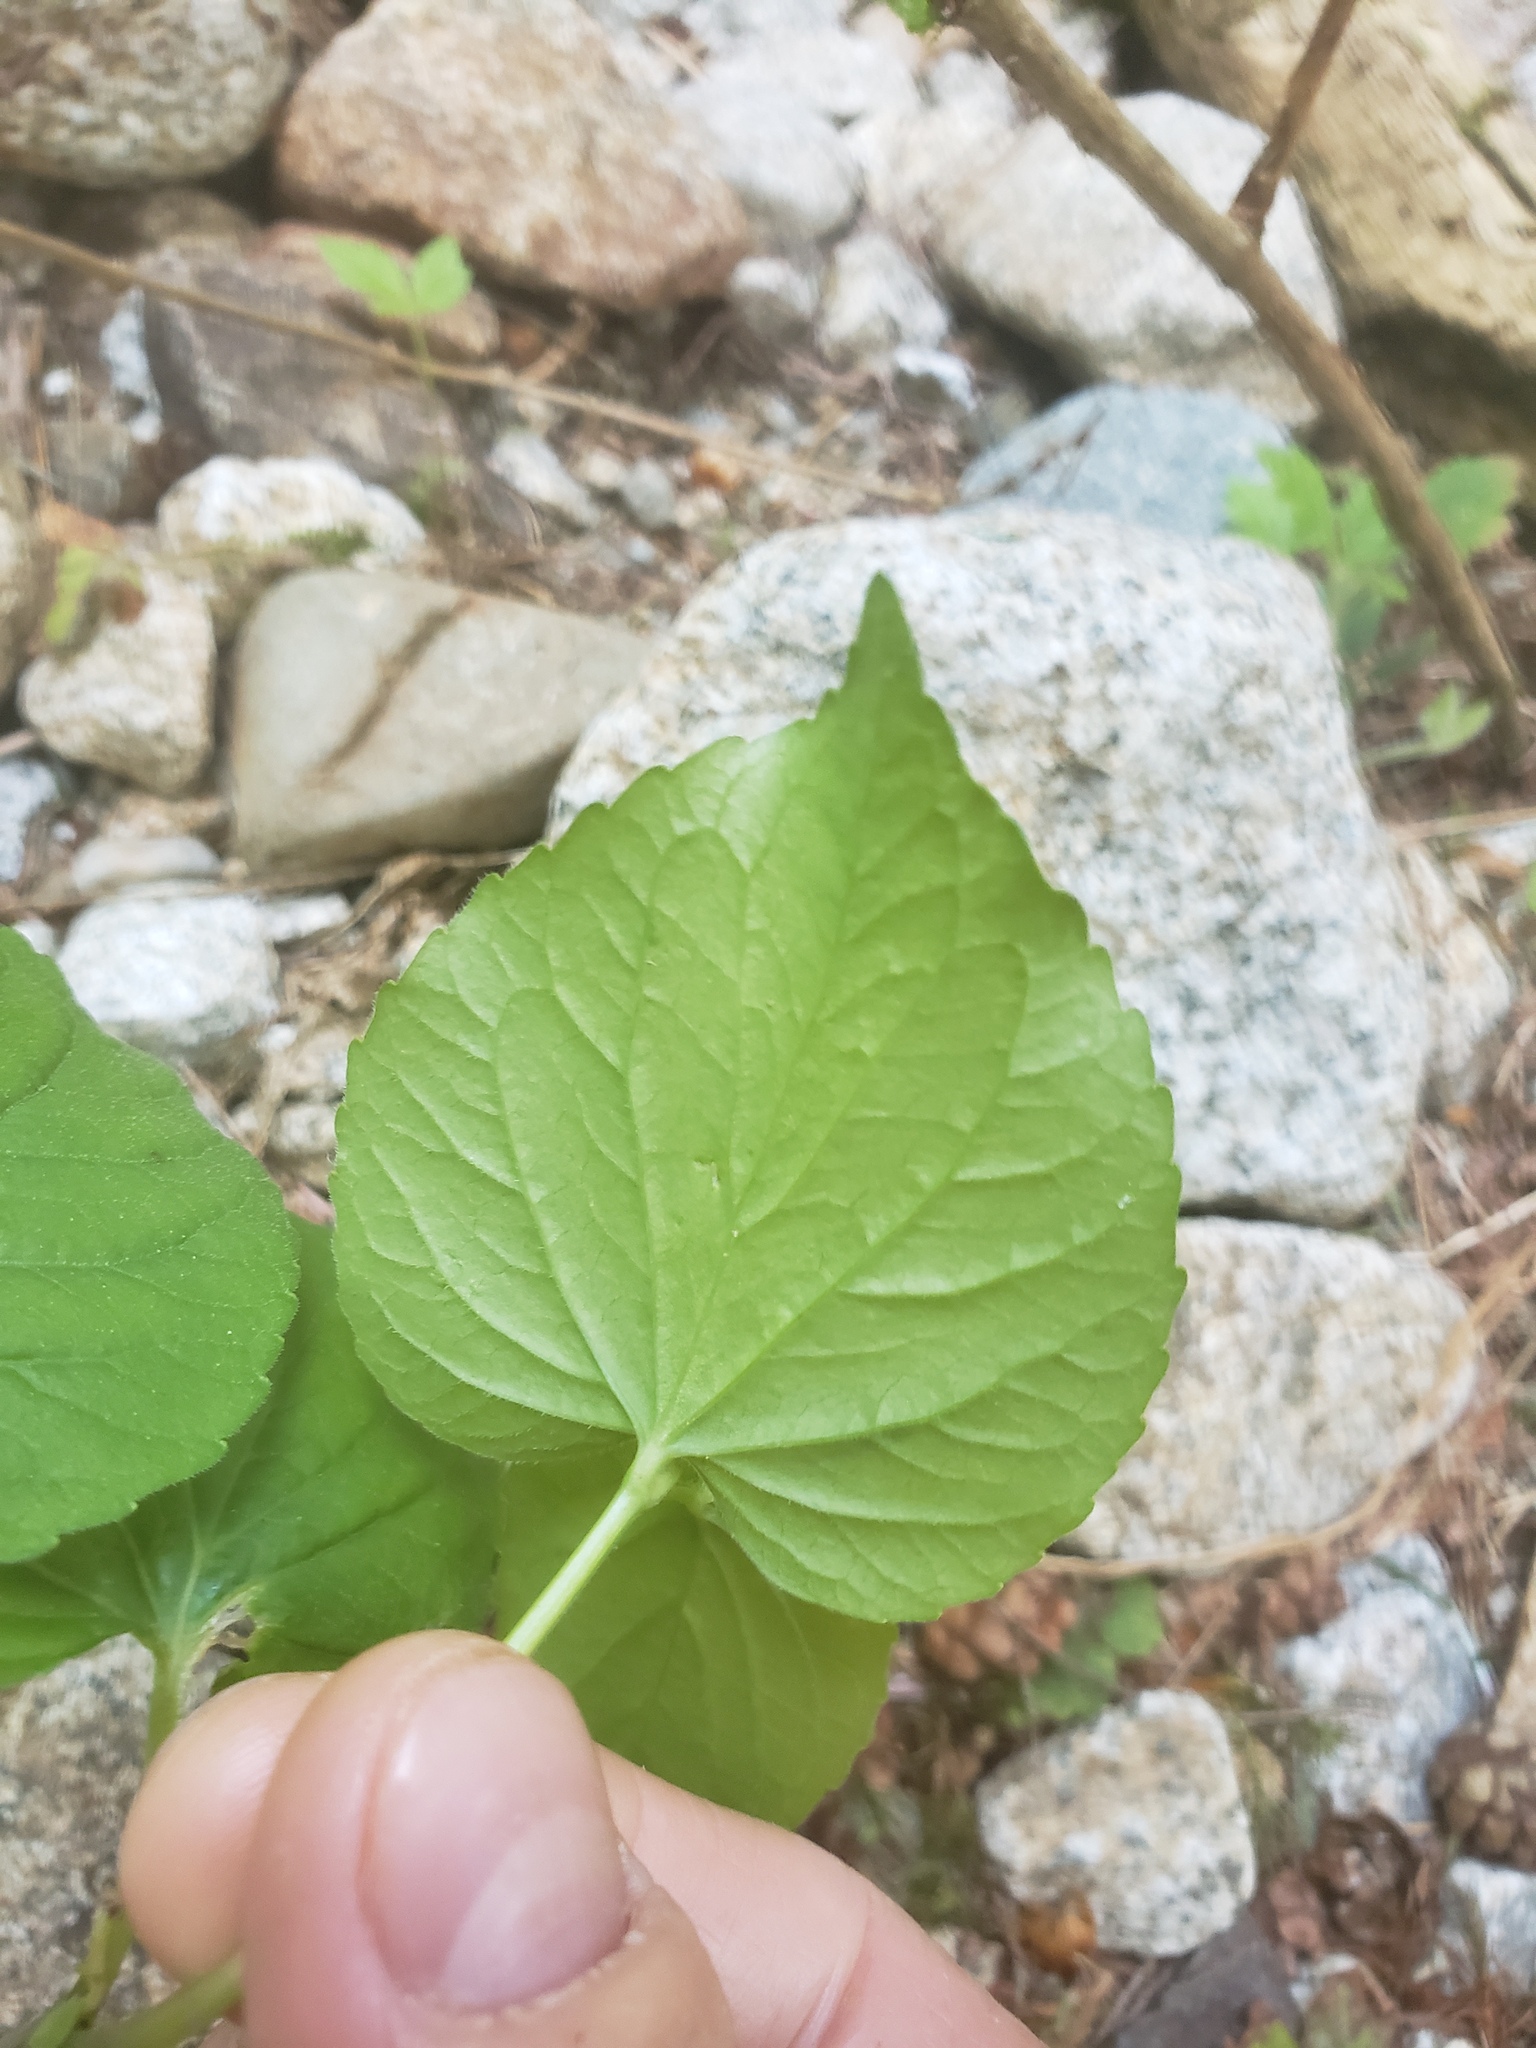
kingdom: Plantae
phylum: Tracheophyta
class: Magnoliopsida
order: Malpighiales
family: Violaceae
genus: Viola
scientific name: Viola glabella
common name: Stream violet
